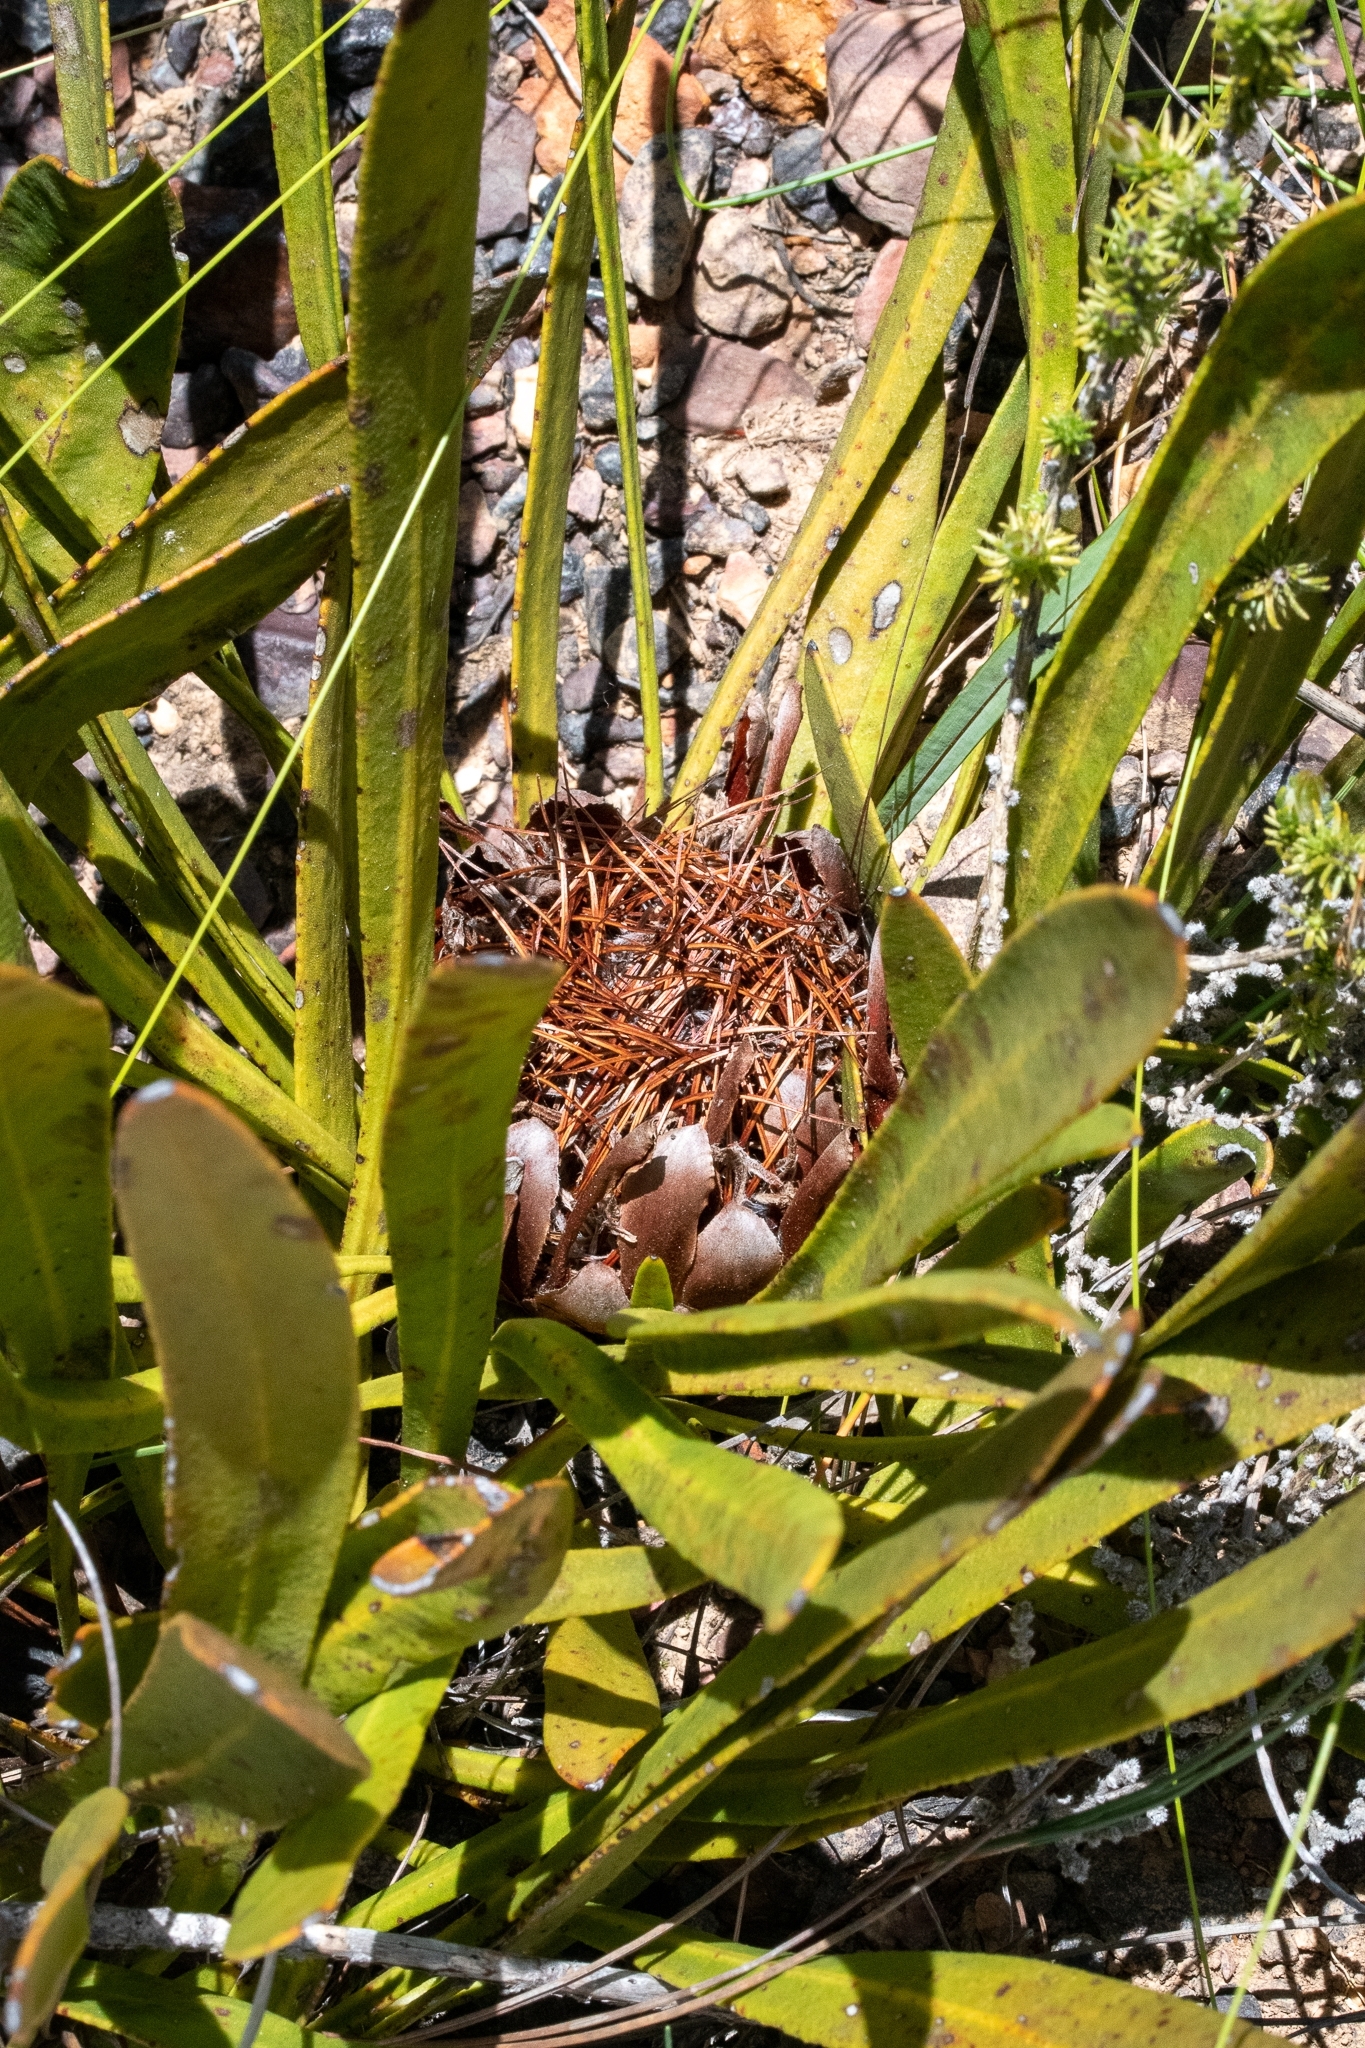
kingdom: Plantae
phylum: Tracheophyta
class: Magnoliopsida
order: Proteales
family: Proteaceae
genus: Protea
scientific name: Protea scabra
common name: Sandpaper-leaf sugarbush
